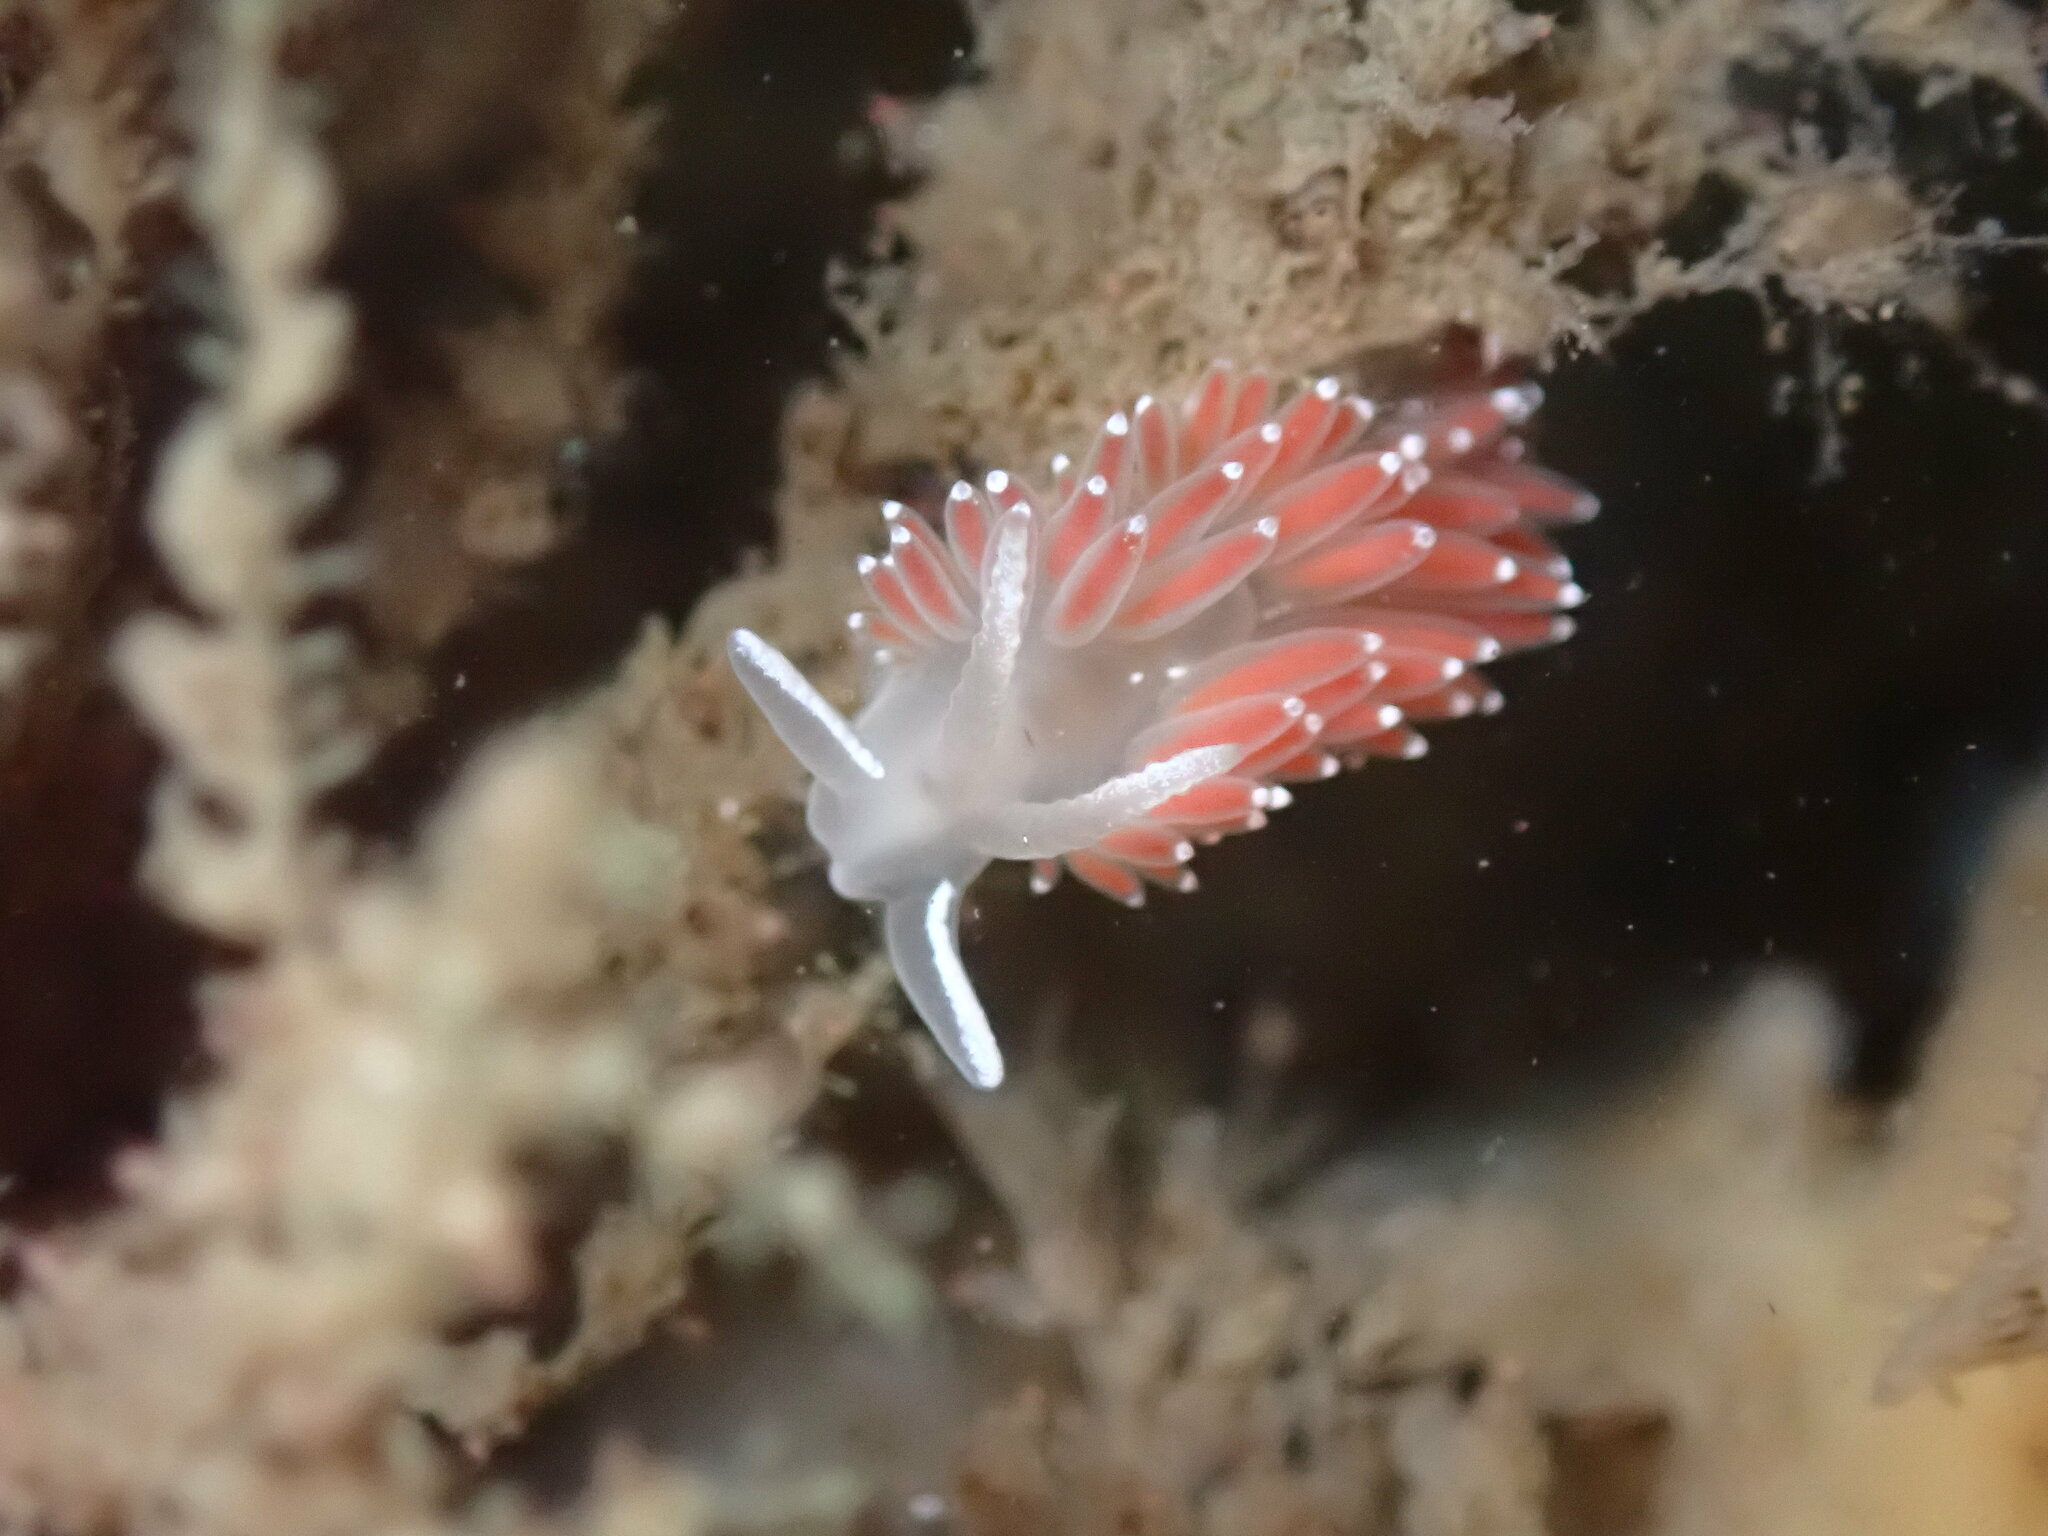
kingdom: Animalia
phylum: Mollusca
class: Gastropoda
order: Nudibranchia
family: Coryphellidae
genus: Coryphella
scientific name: Coryphella verrucosa
